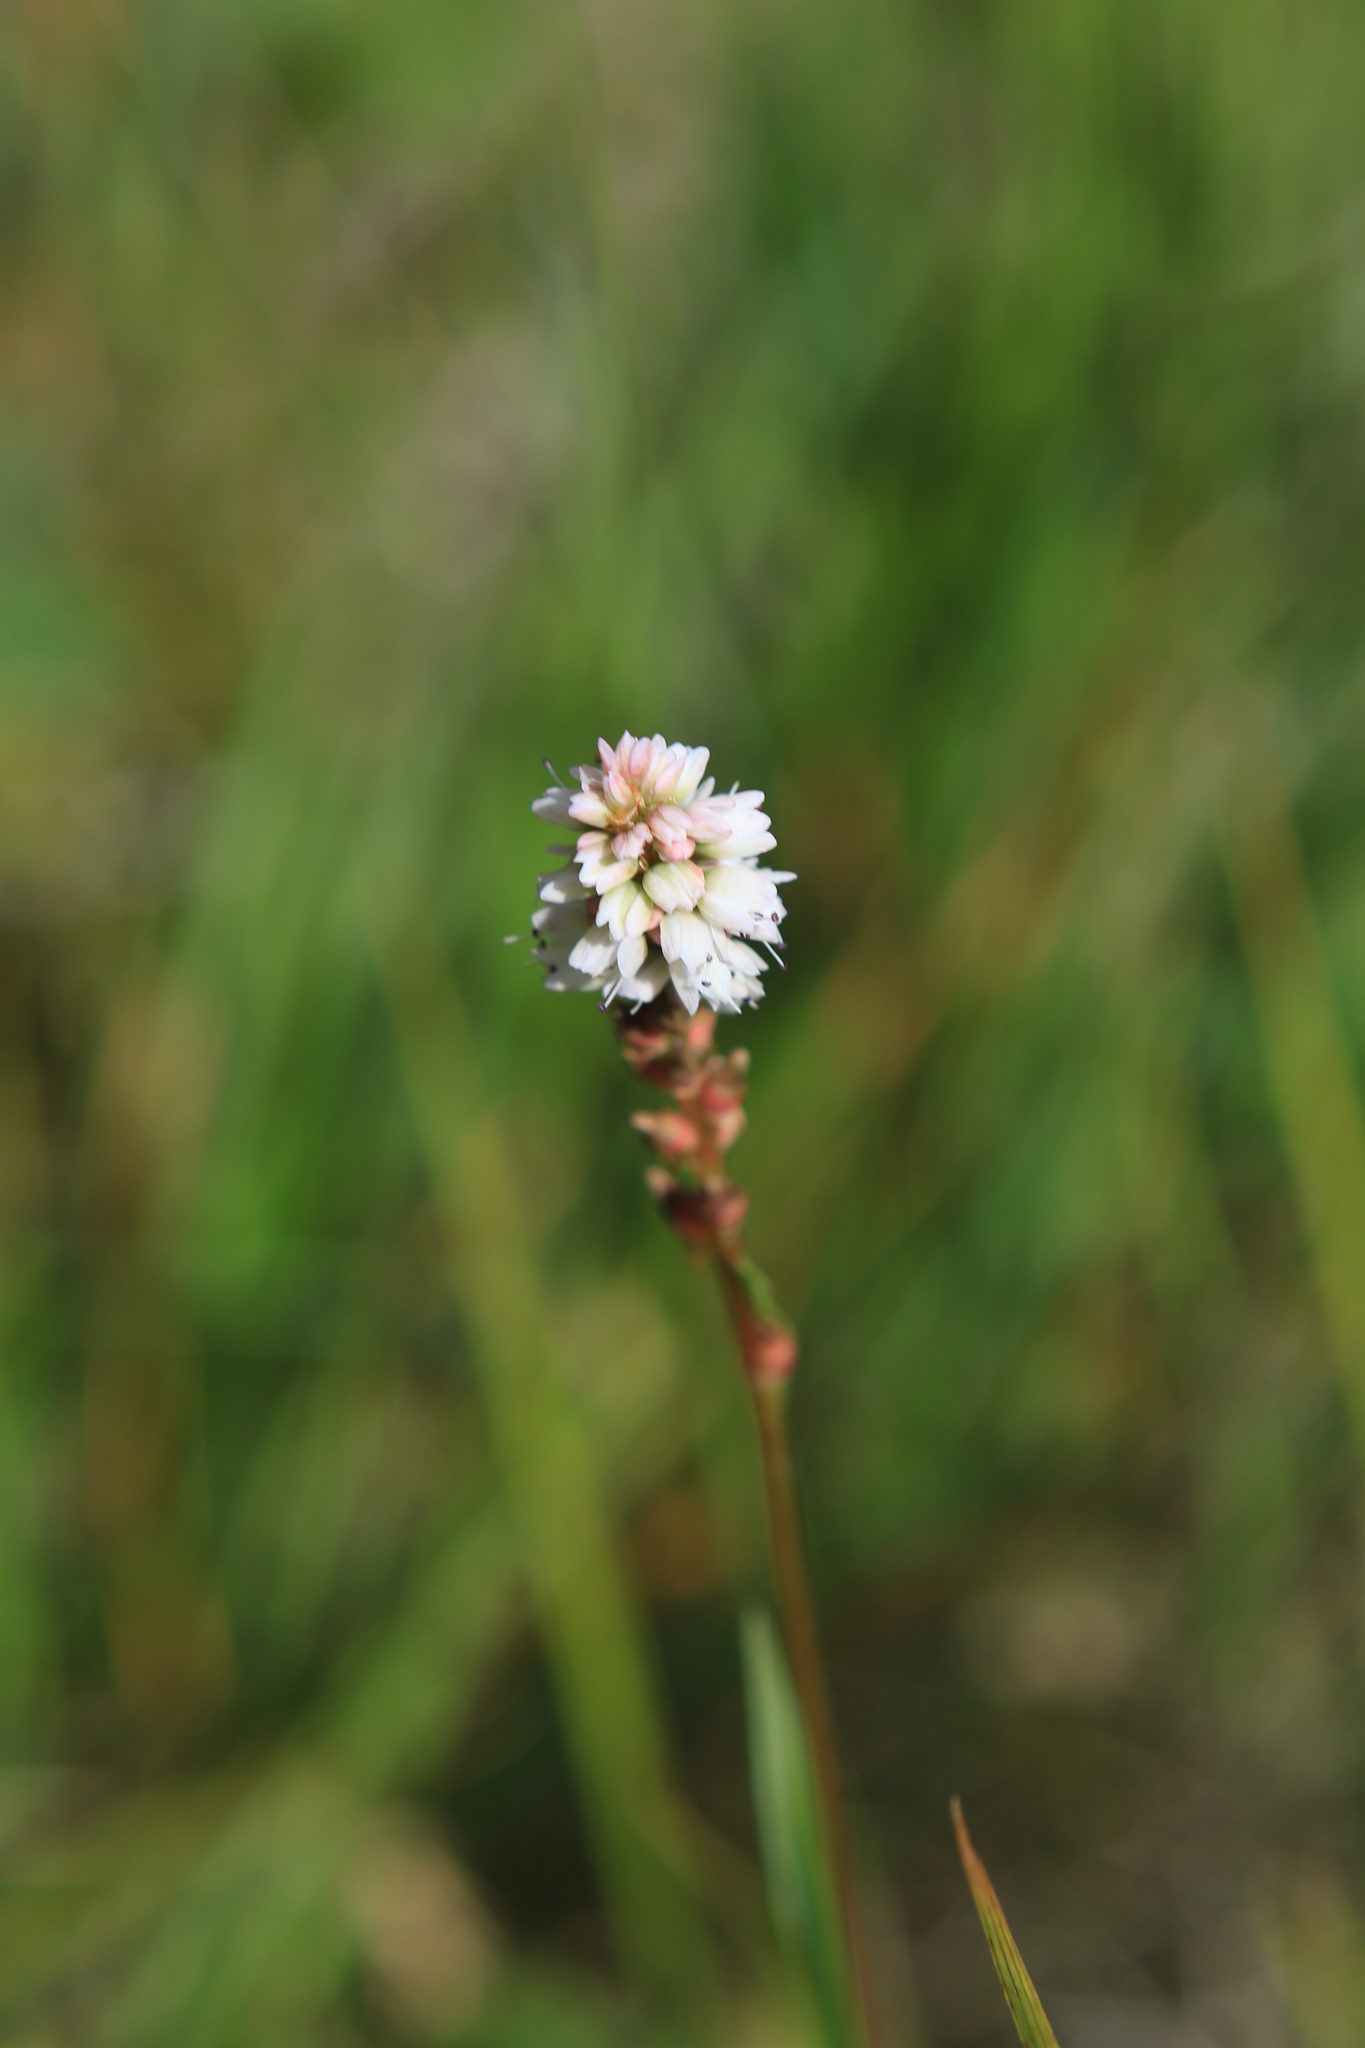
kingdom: Plantae
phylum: Tracheophyta
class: Magnoliopsida
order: Caryophyllales
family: Polygonaceae
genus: Bistorta
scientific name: Bistorta vivipara
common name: Alpine bistort
